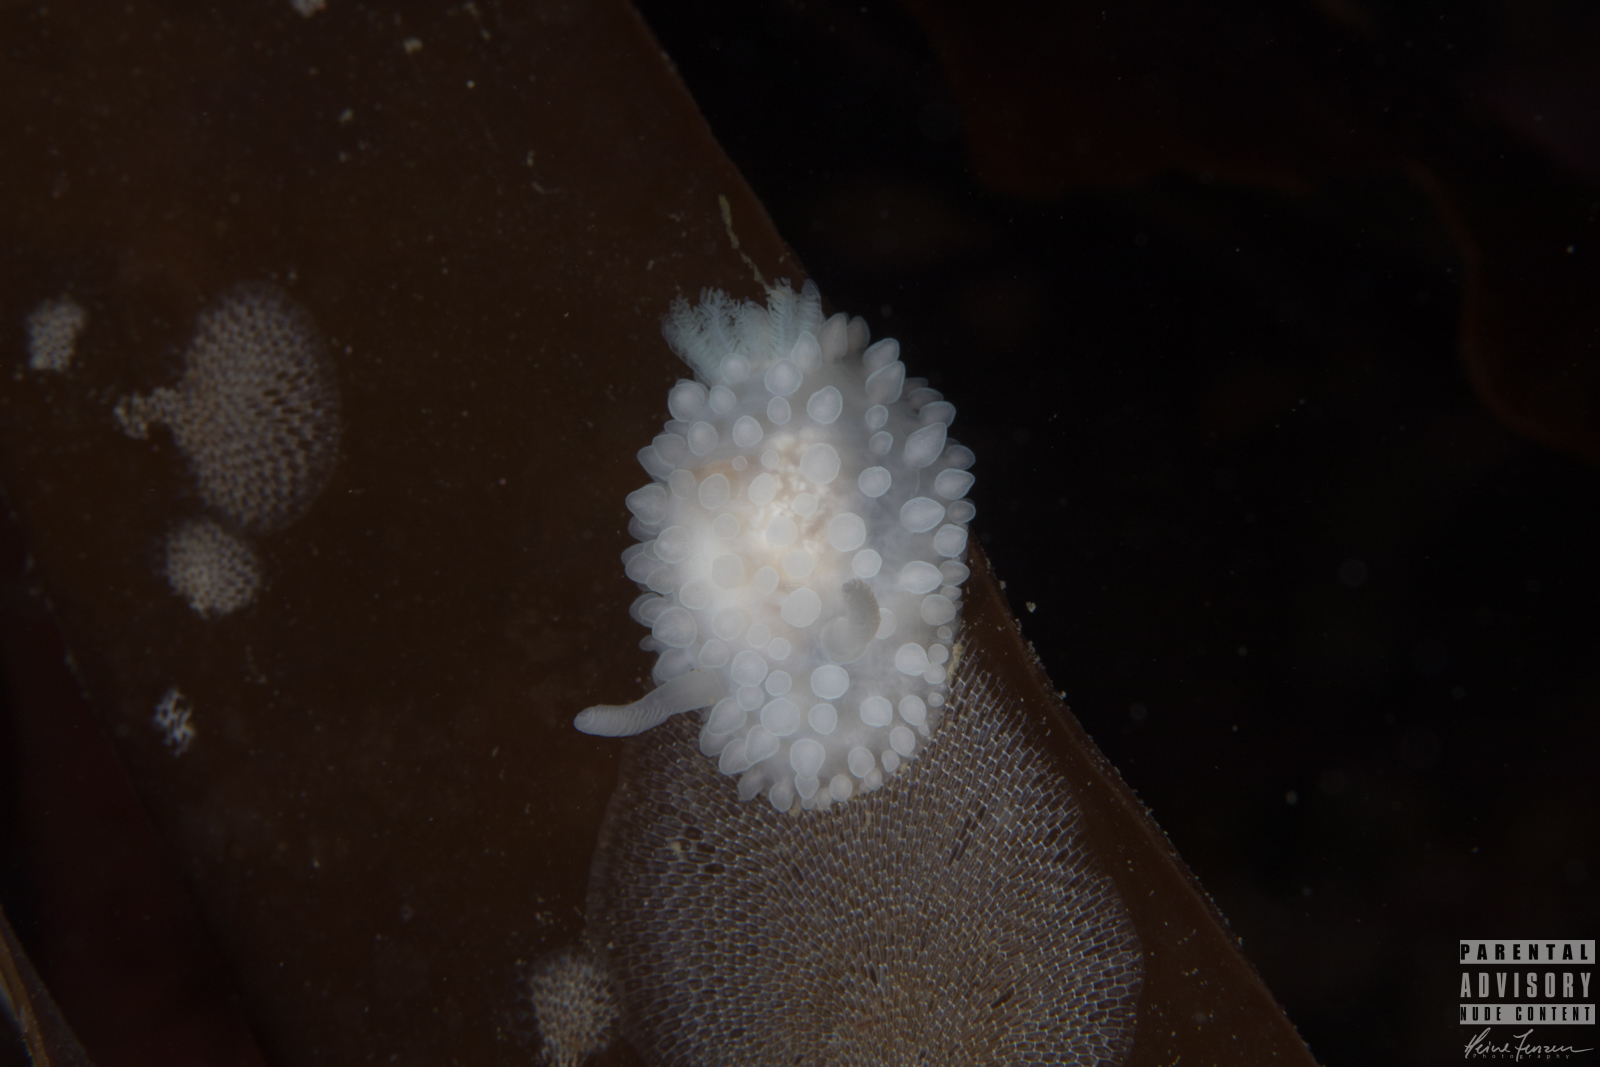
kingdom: Animalia
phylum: Mollusca
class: Gastropoda
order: Nudibranchia
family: Onchidorididae
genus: Adalaria
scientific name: Adalaria proxima
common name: False doris
